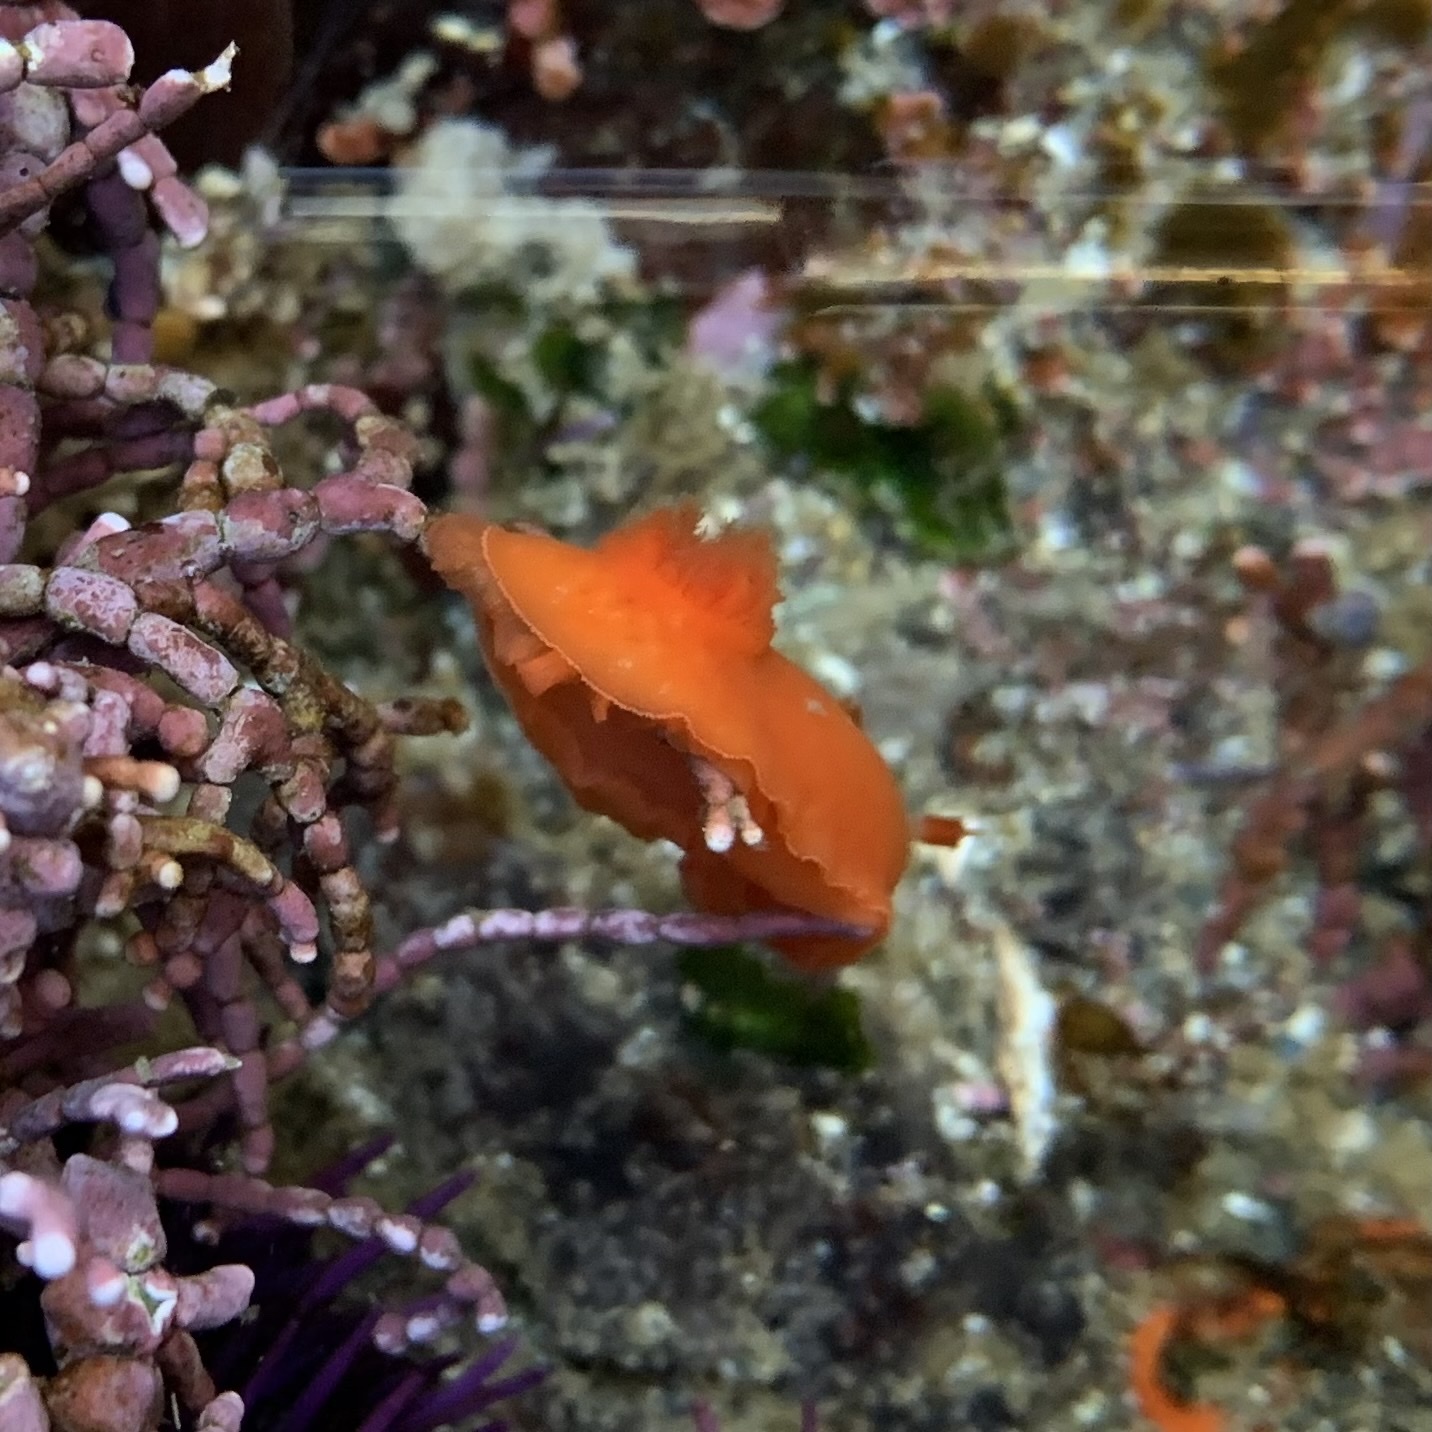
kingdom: Animalia
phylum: Mollusca
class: Gastropoda
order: Nudibranchia
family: Discodorididae
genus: Rostanga
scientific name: Rostanga pulchra
